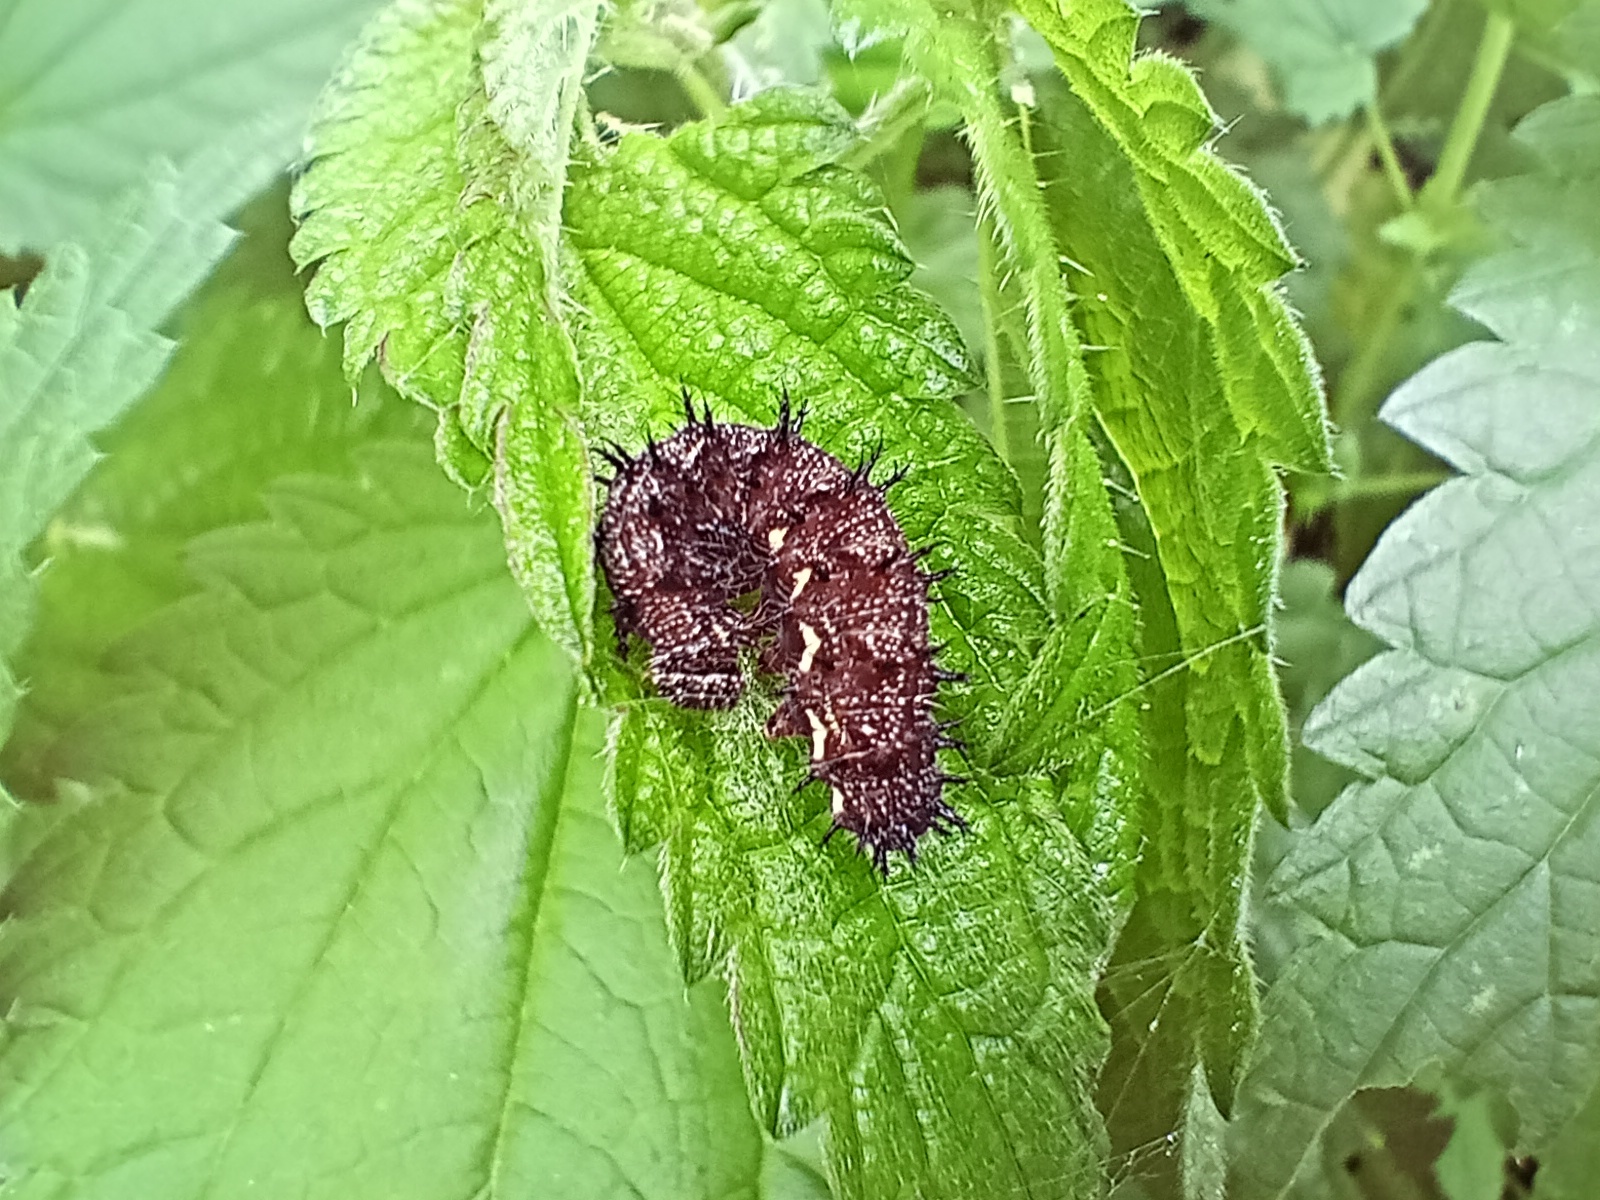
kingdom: Animalia
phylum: Arthropoda
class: Insecta
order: Lepidoptera
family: Nymphalidae
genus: Vanessa
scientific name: Vanessa atalanta
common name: Red admiral
